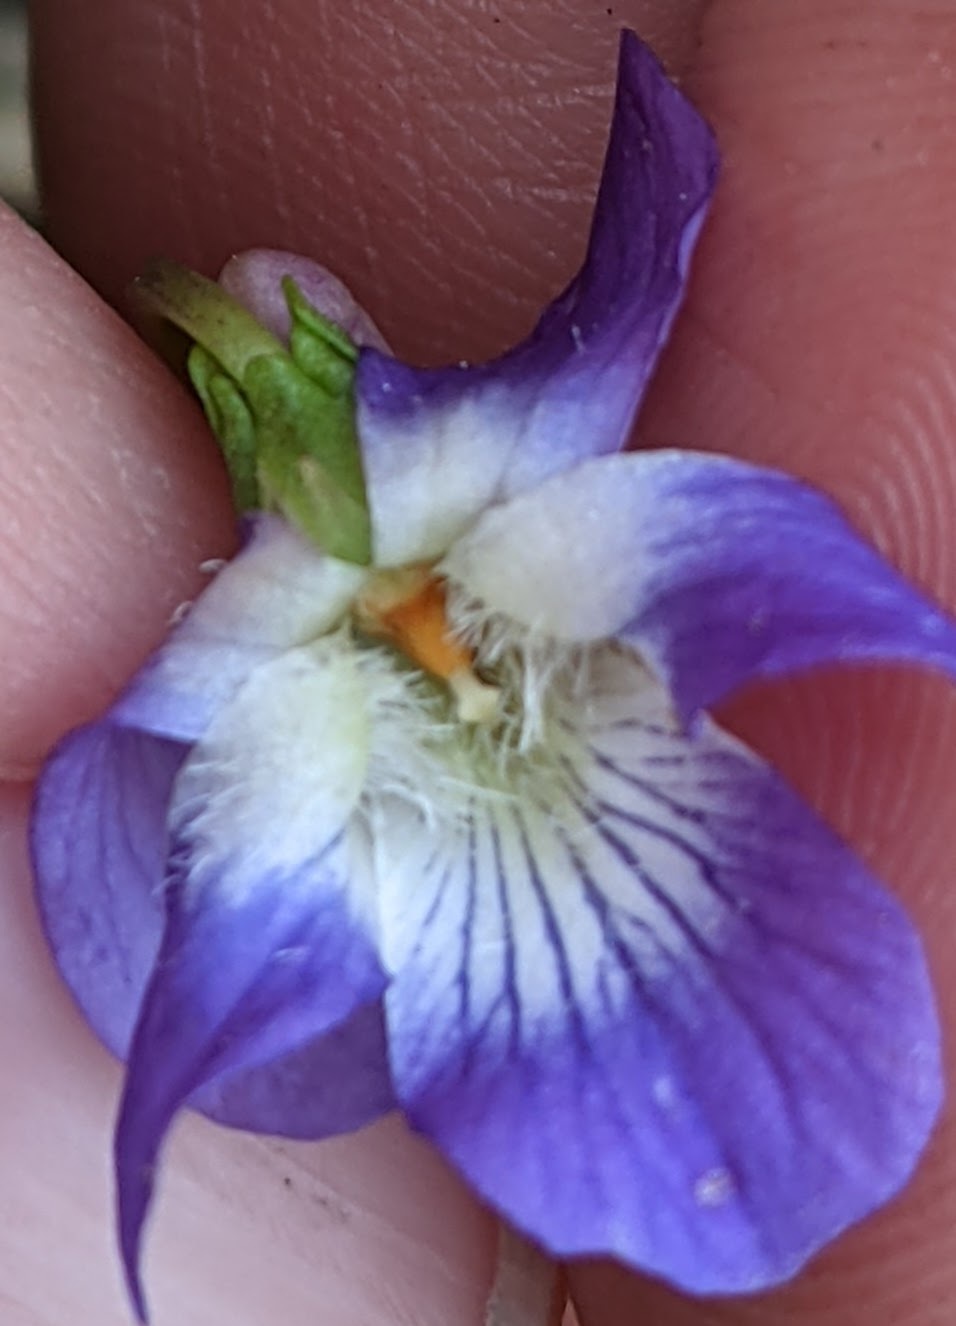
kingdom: Plantae
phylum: Tracheophyta
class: Magnoliopsida
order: Malpighiales
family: Violaceae
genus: Viola
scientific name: Viola fimbriatula
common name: Sand violet
